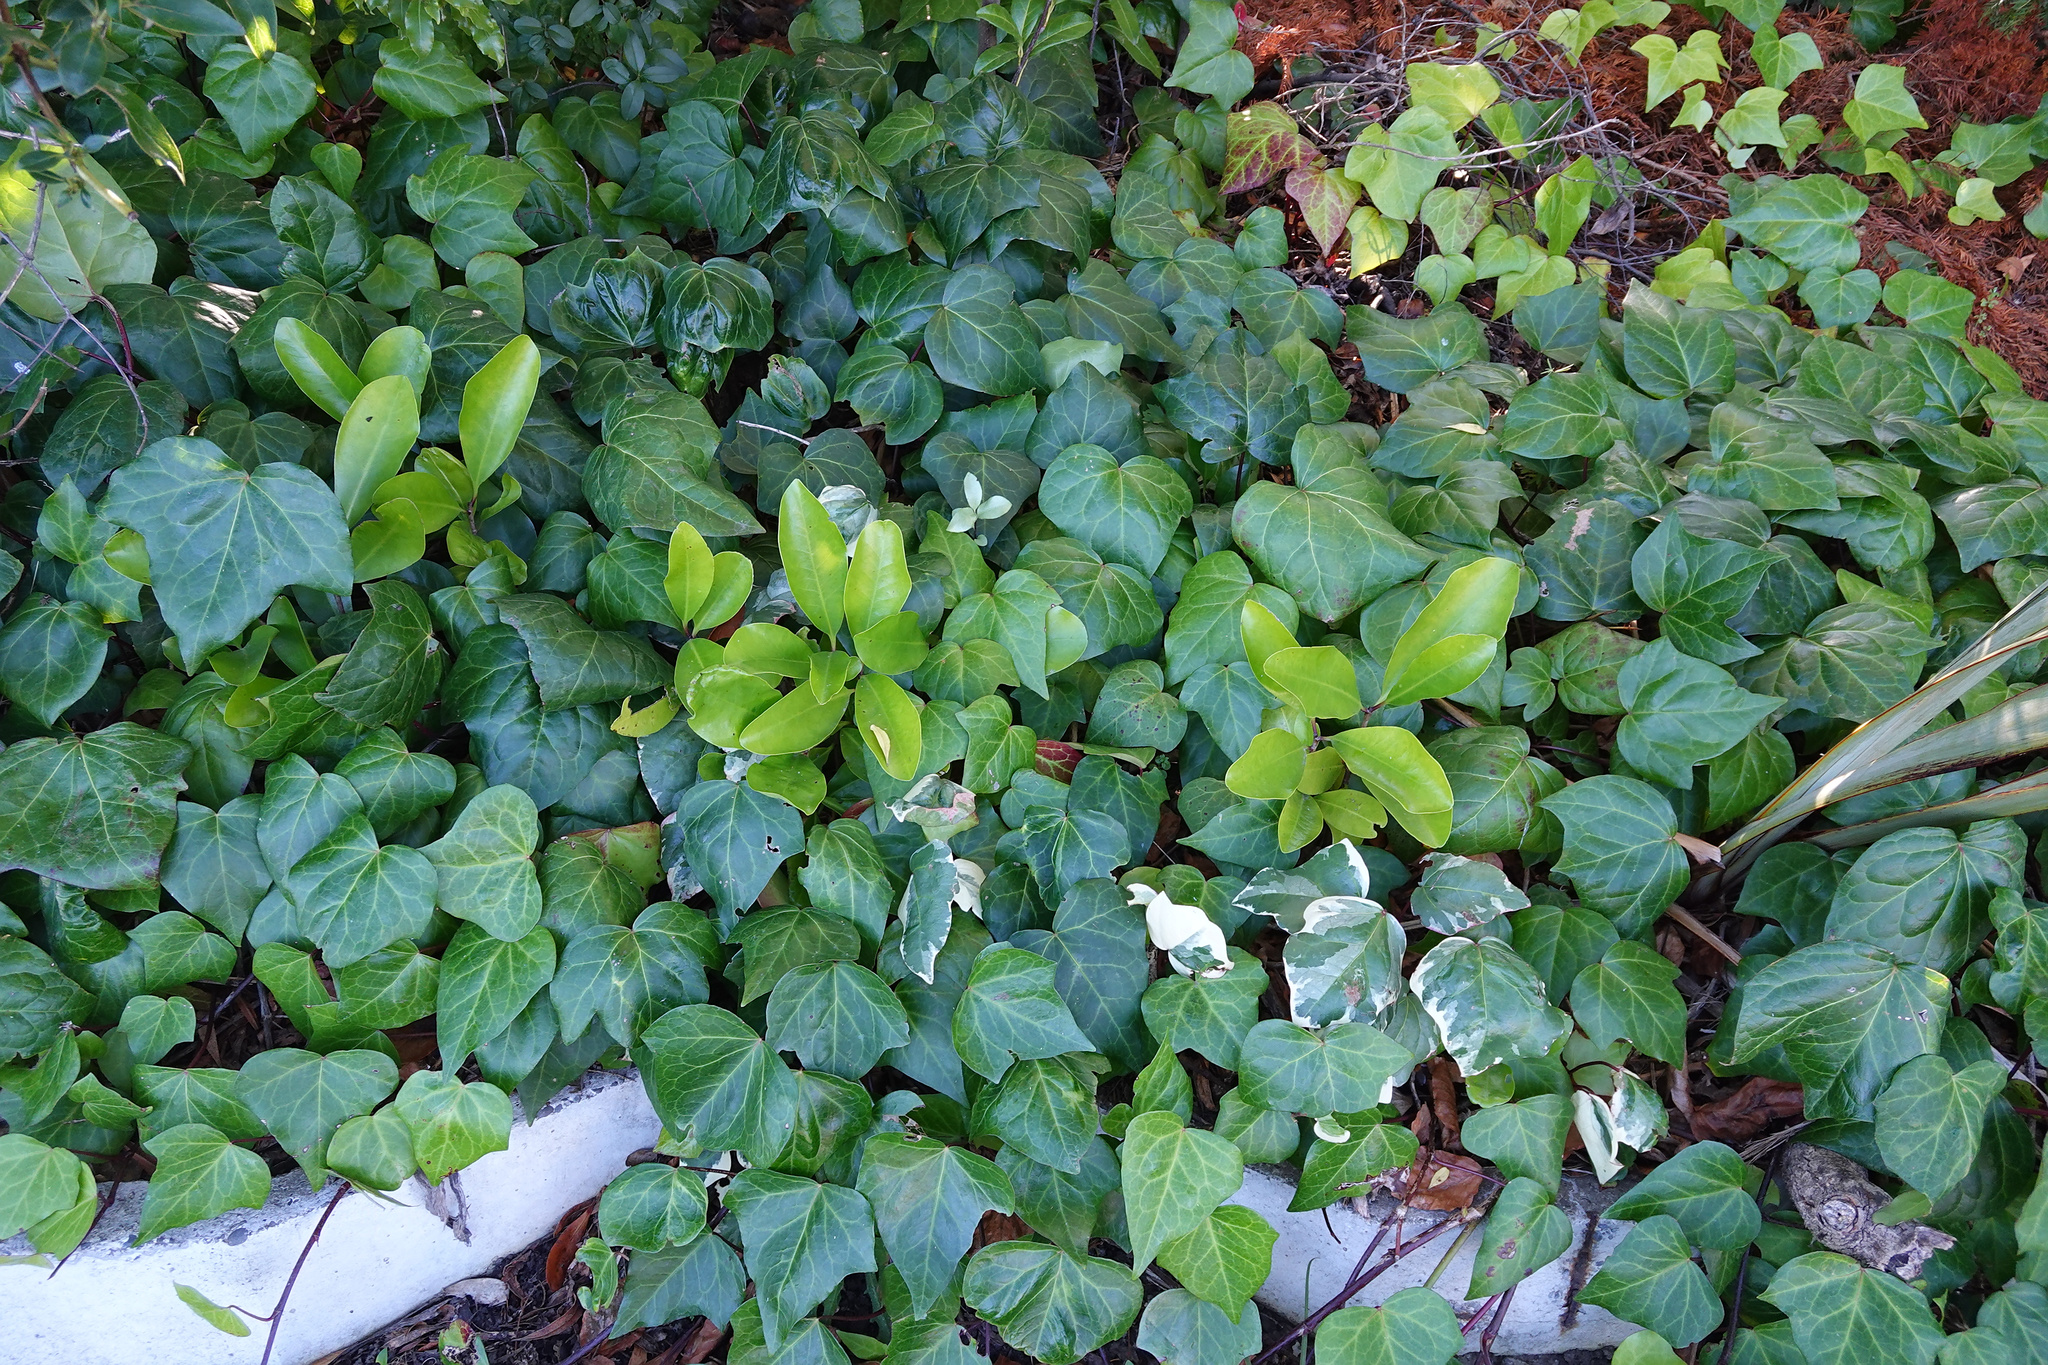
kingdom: Plantae
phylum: Tracheophyta
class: Magnoliopsida
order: Cucurbitales
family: Corynocarpaceae
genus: Corynocarpus
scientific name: Corynocarpus laevigatus
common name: New zealand laurel
